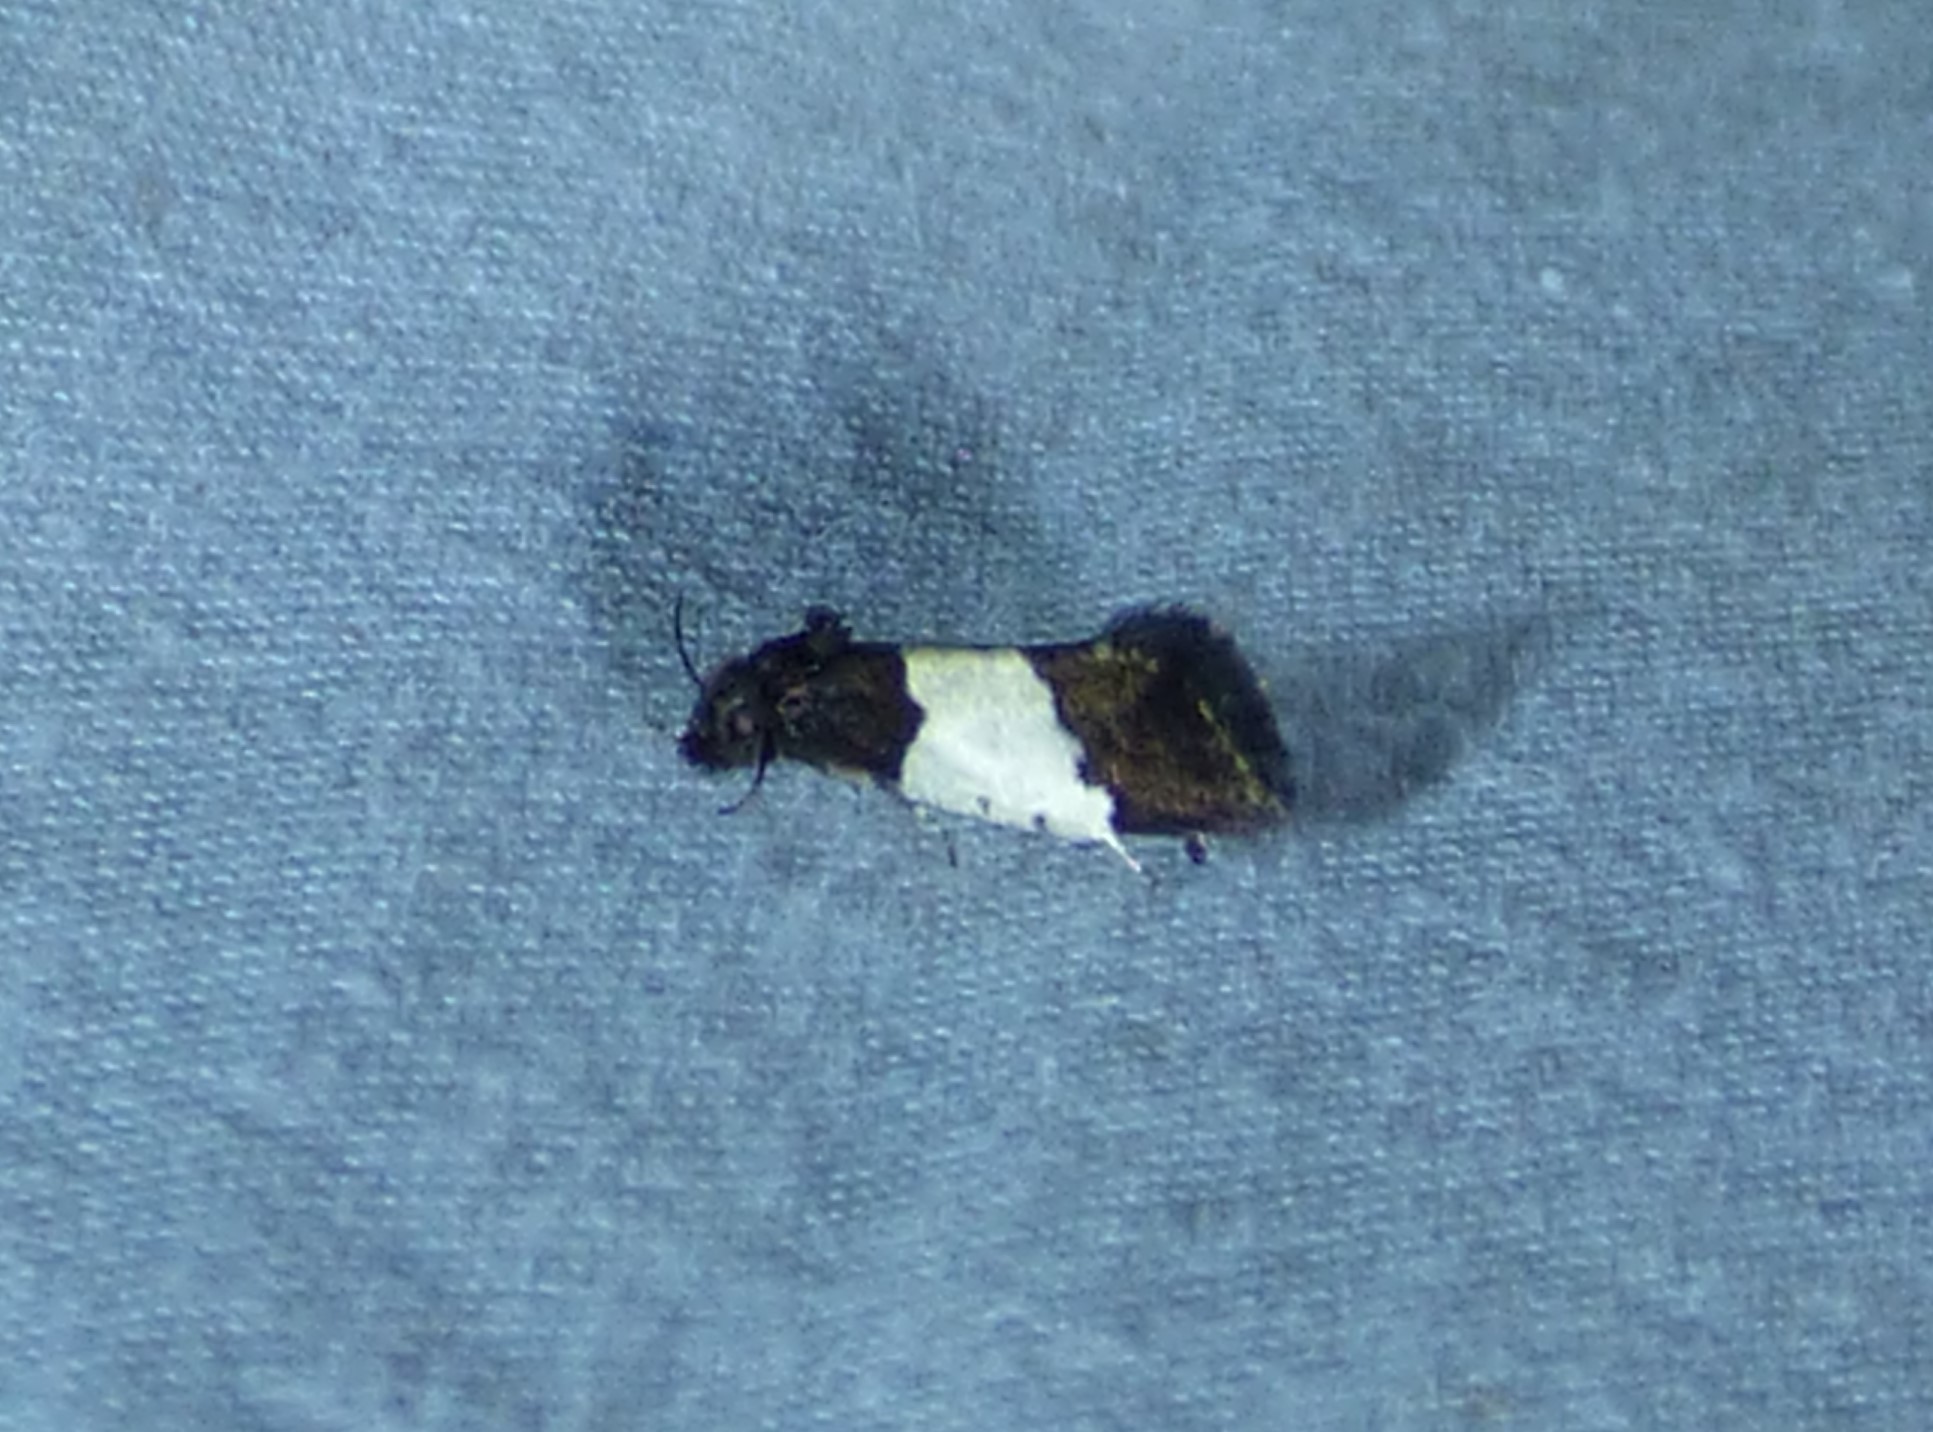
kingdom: Animalia
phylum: Arthropoda
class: Insecta
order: Lepidoptera
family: Psychidae
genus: Kearfottia
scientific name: Kearfottia albifasciella
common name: White-patched kearfottia
